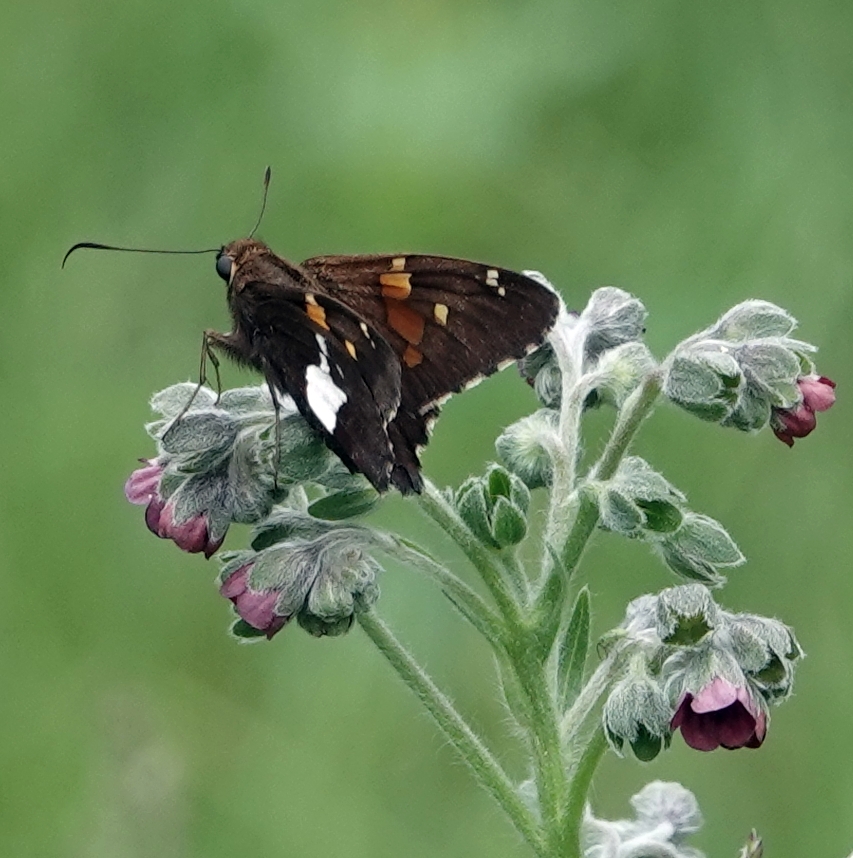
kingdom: Animalia
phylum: Arthropoda
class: Insecta
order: Lepidoptera
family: Hesperiidae
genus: Epargyreus
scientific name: Epargyreus clarus
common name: Silver-spotted skipper
